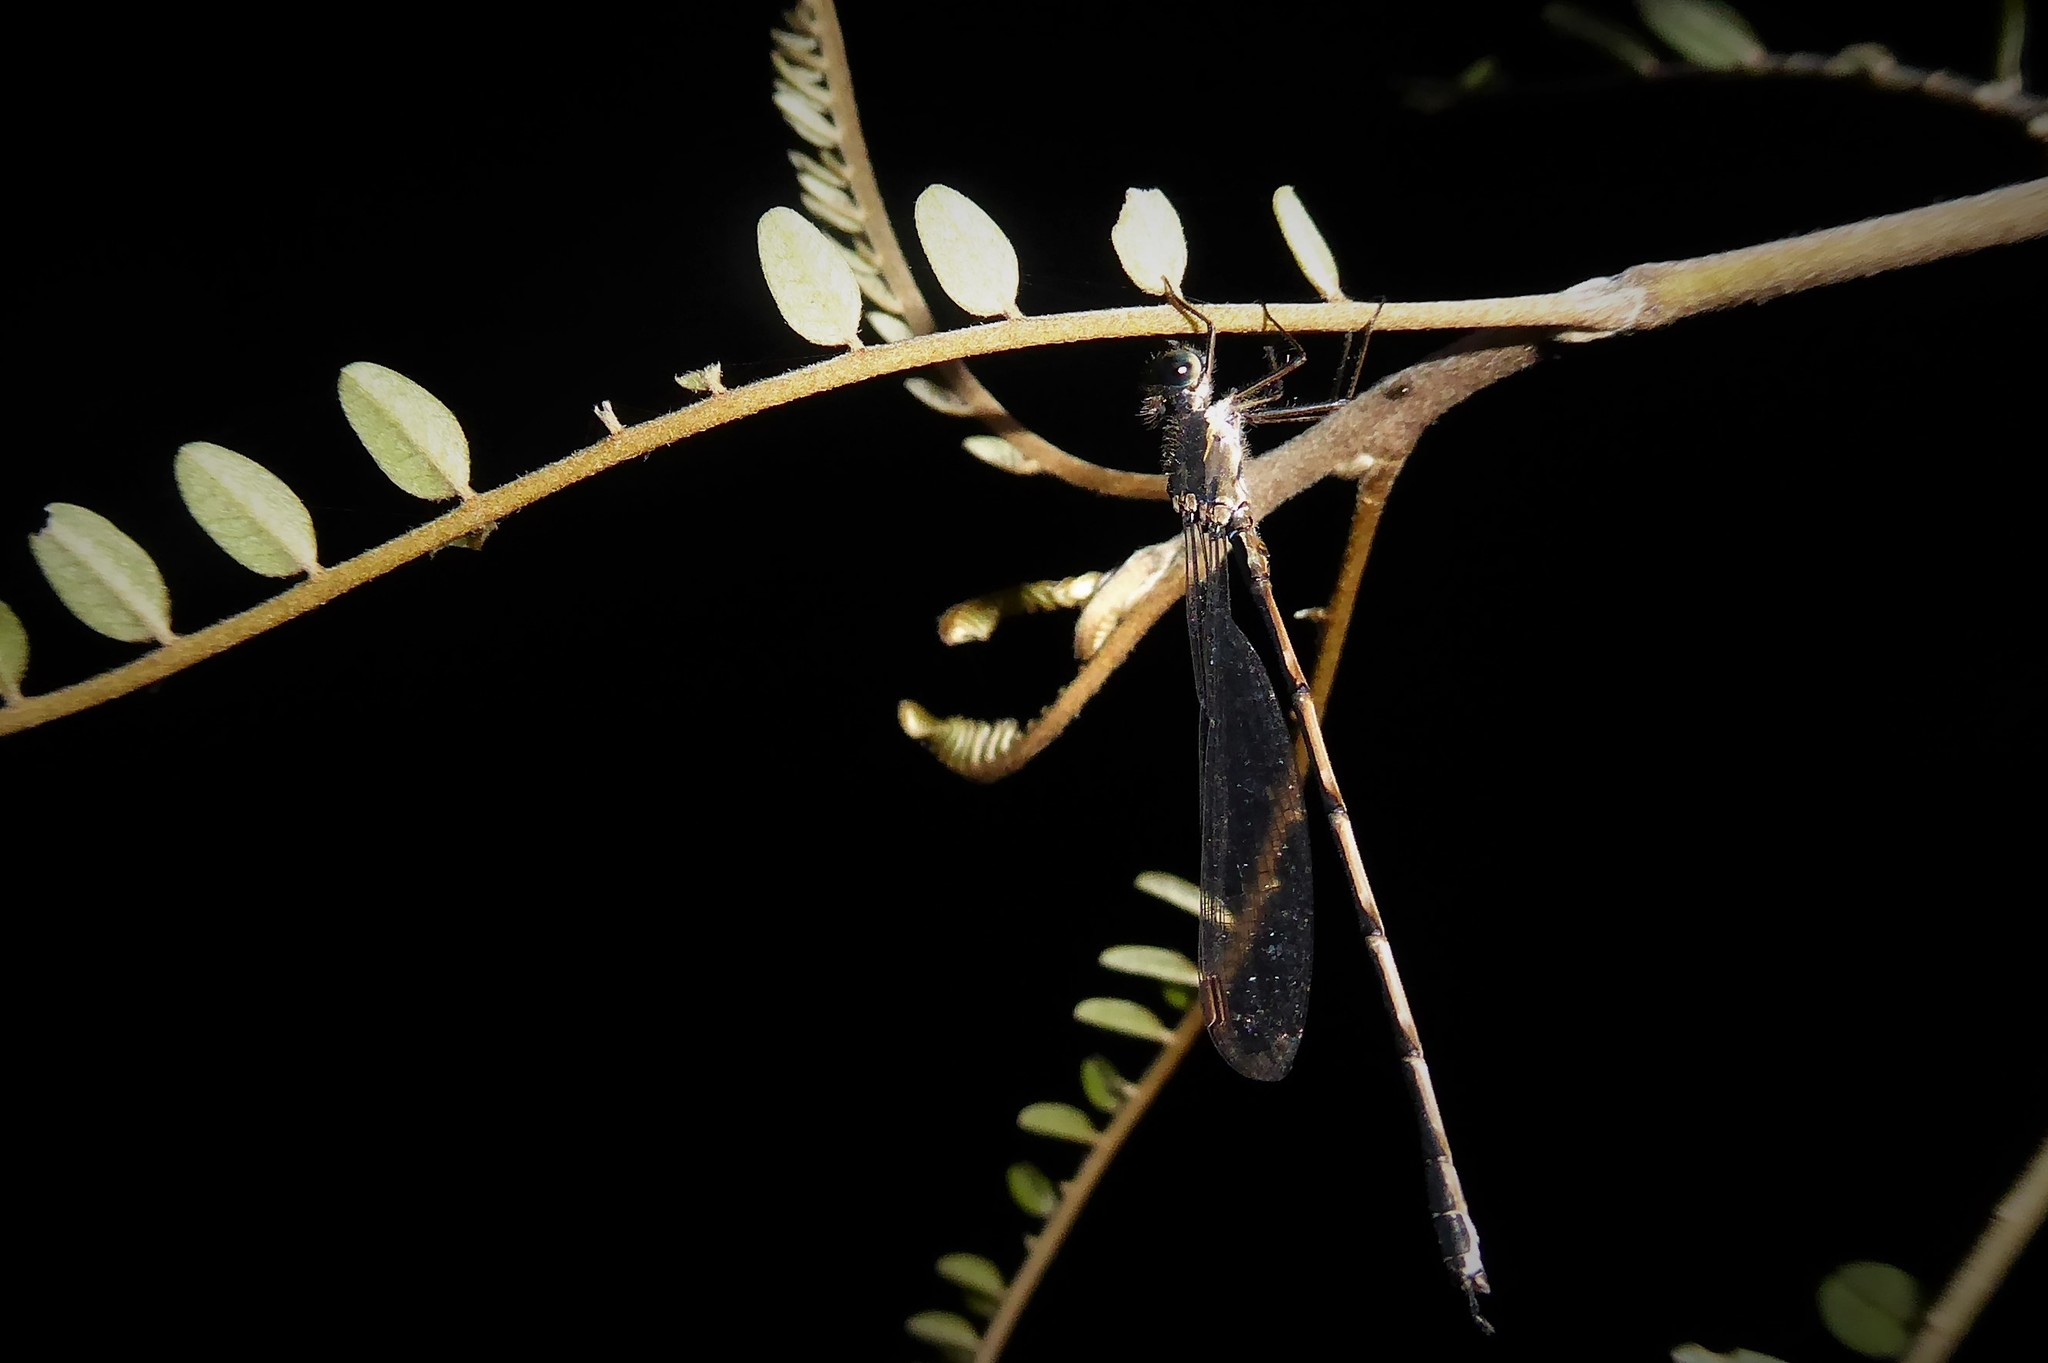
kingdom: Animalia
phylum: Arthropoda
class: Insecta
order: Odonata
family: Lestidae
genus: Austrolestes
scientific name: Austrolestes colensonis
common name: Blue damselfly
